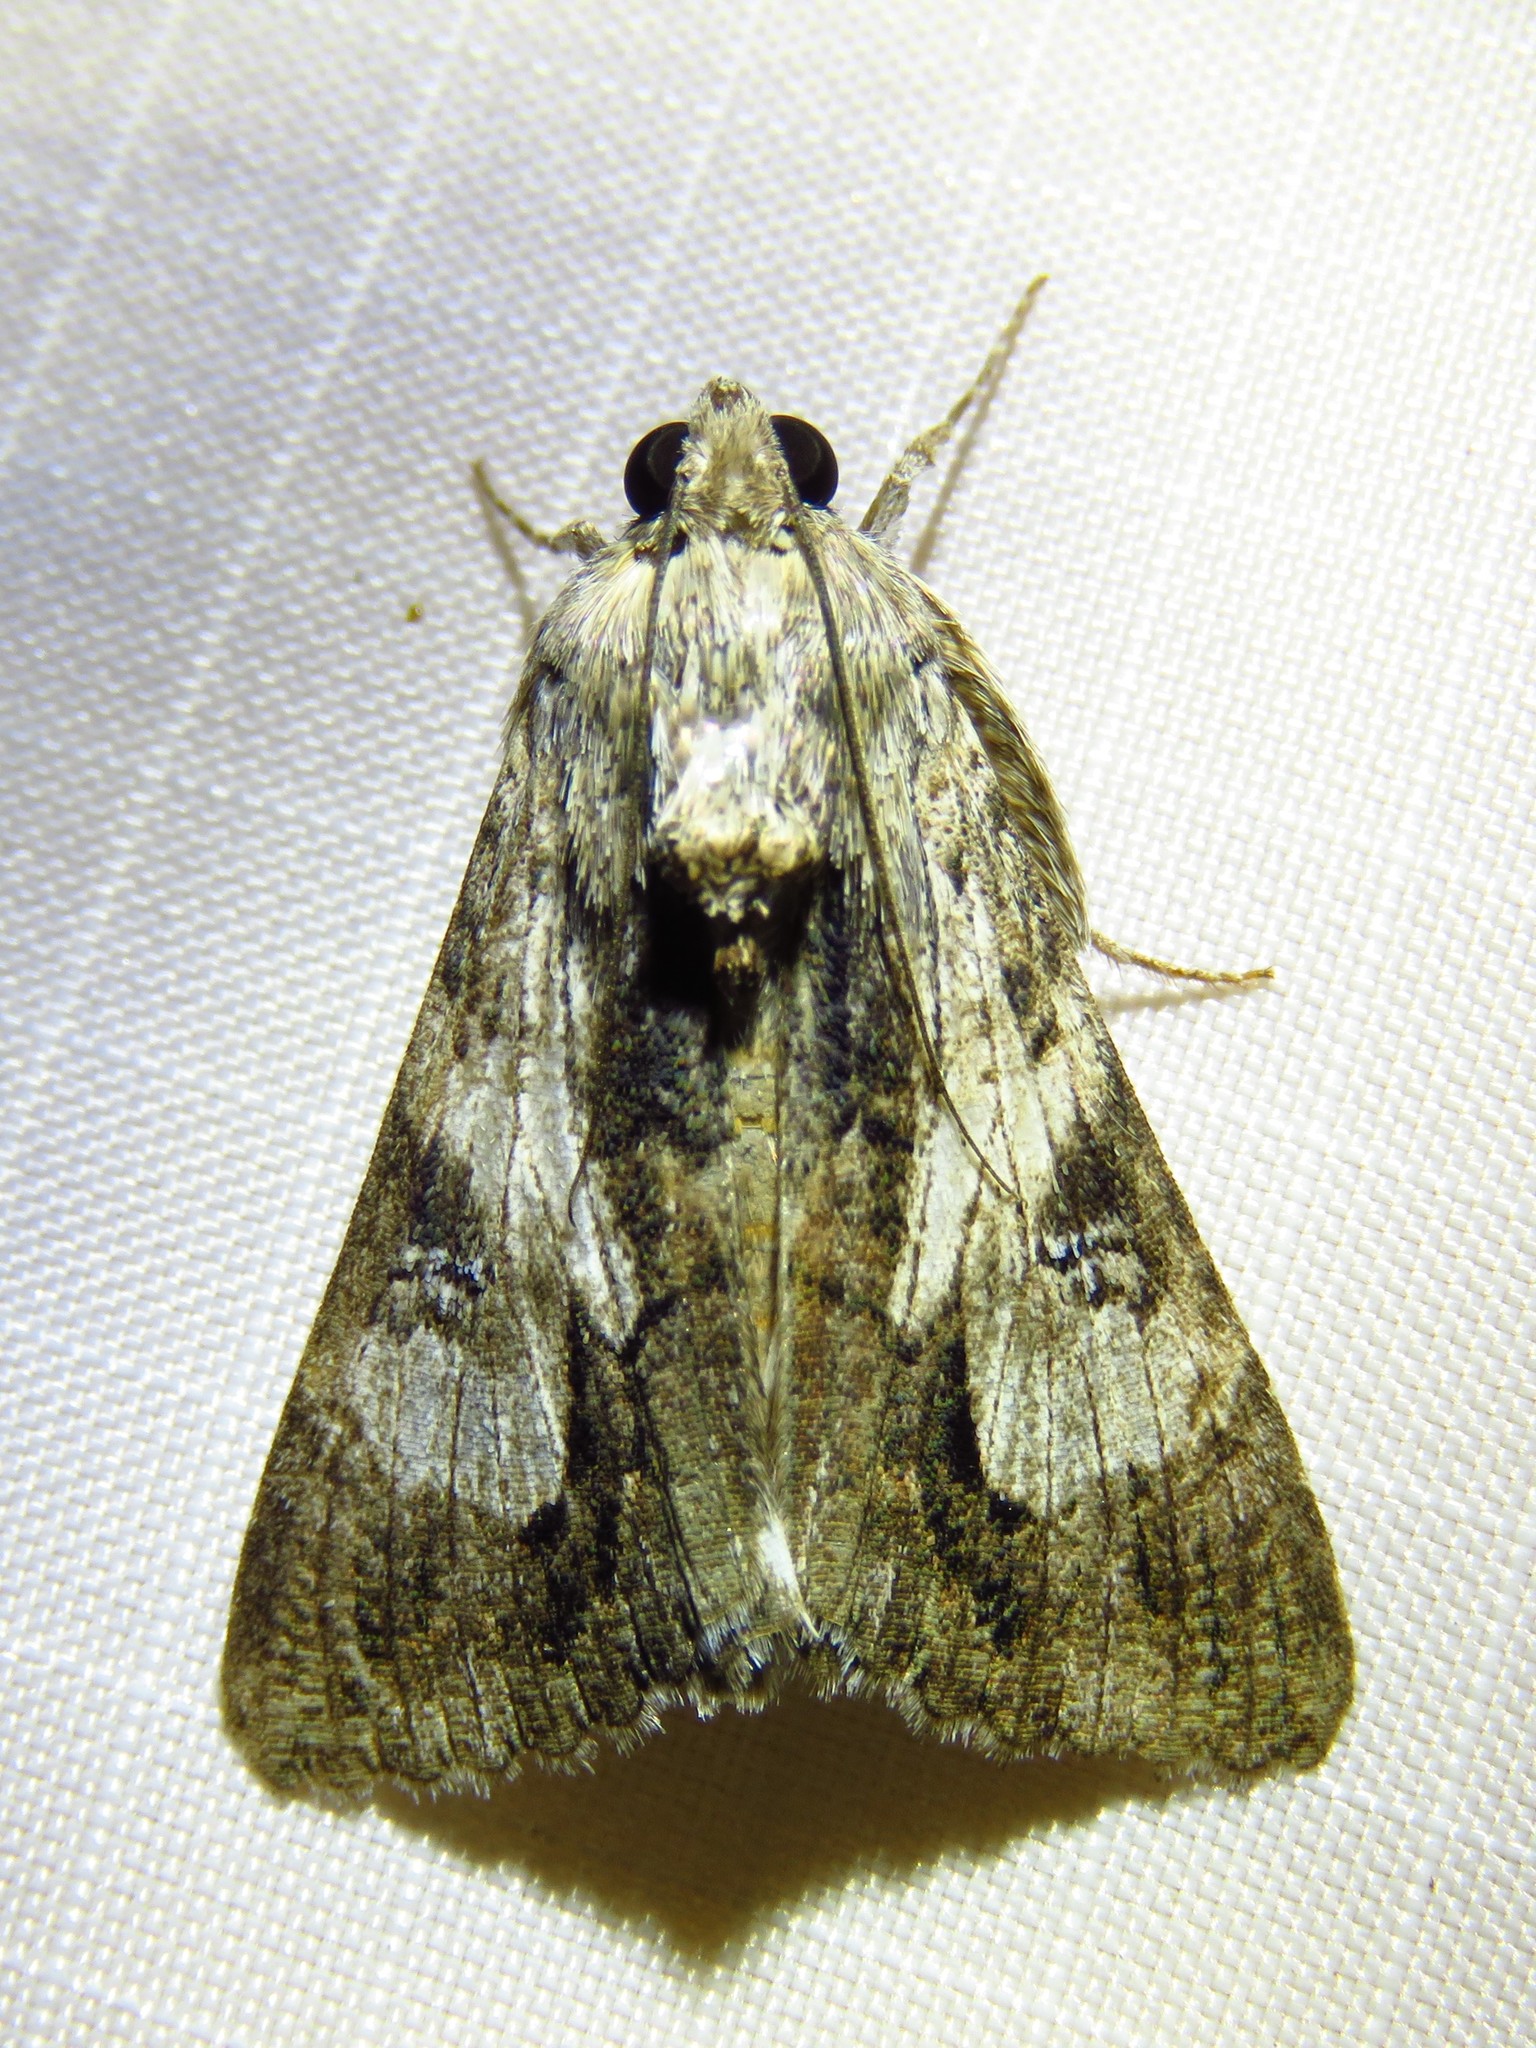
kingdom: Animalia
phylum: Arthropoda
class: Insecta
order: Lepidoptera
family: Erebidae
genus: Melipotis
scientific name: Melipotis jucunda
